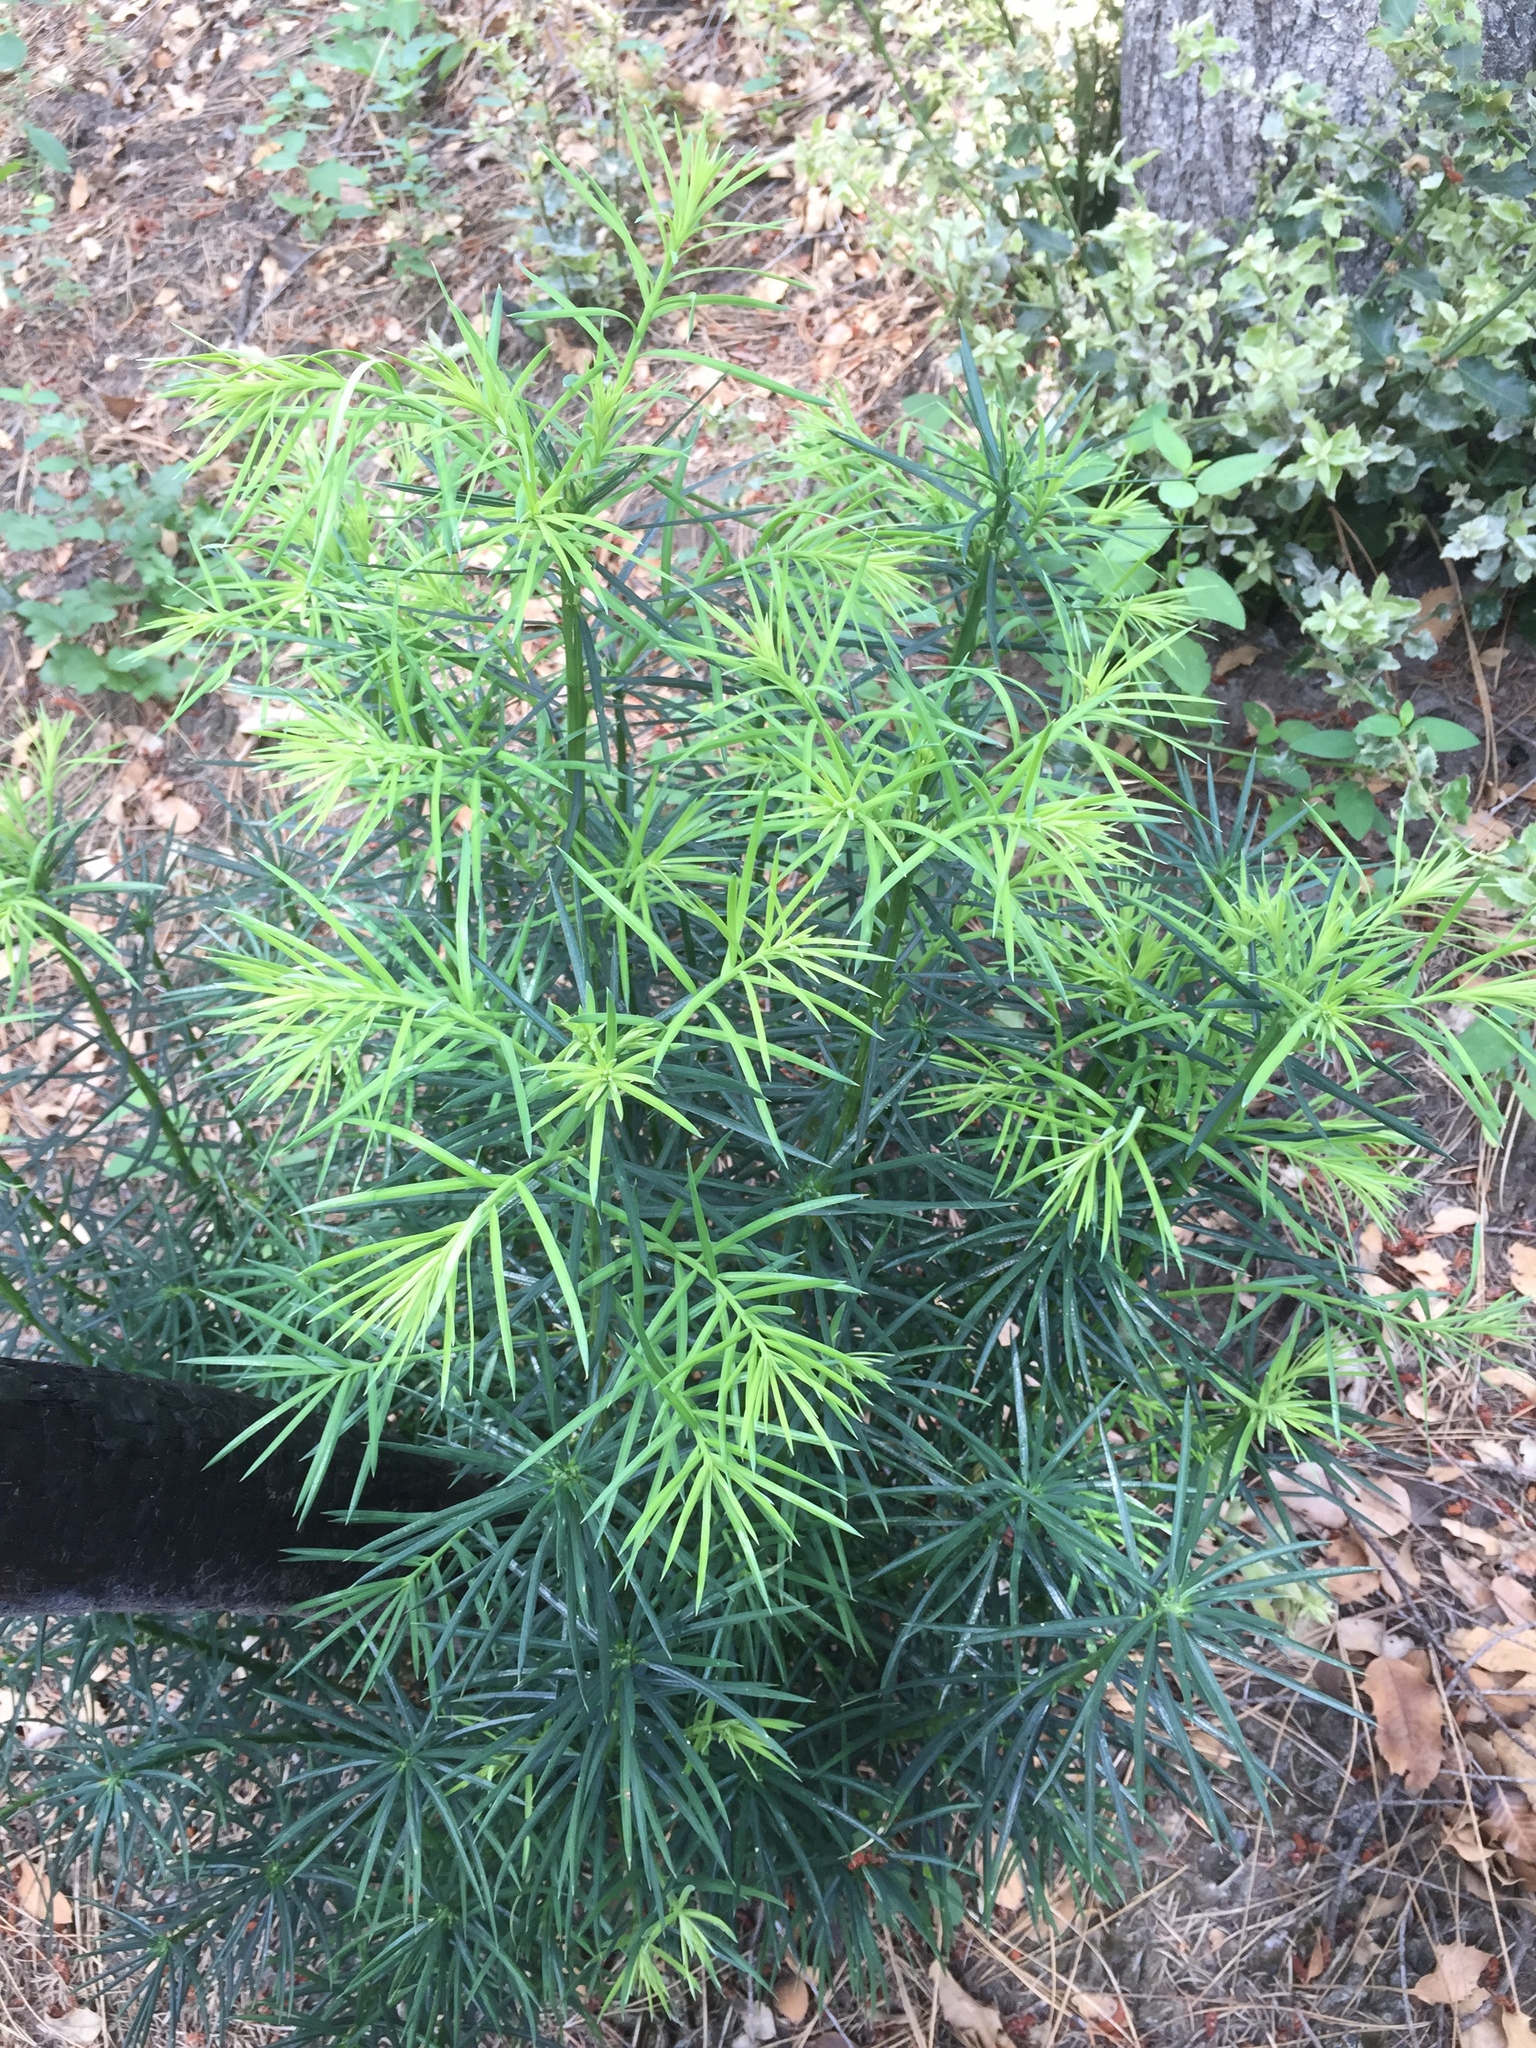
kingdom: Plantae
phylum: Tracheophyta
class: Pinopsida
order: Pinales
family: Taxaceae
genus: Torreya
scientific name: Torreya californica
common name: California torreya
